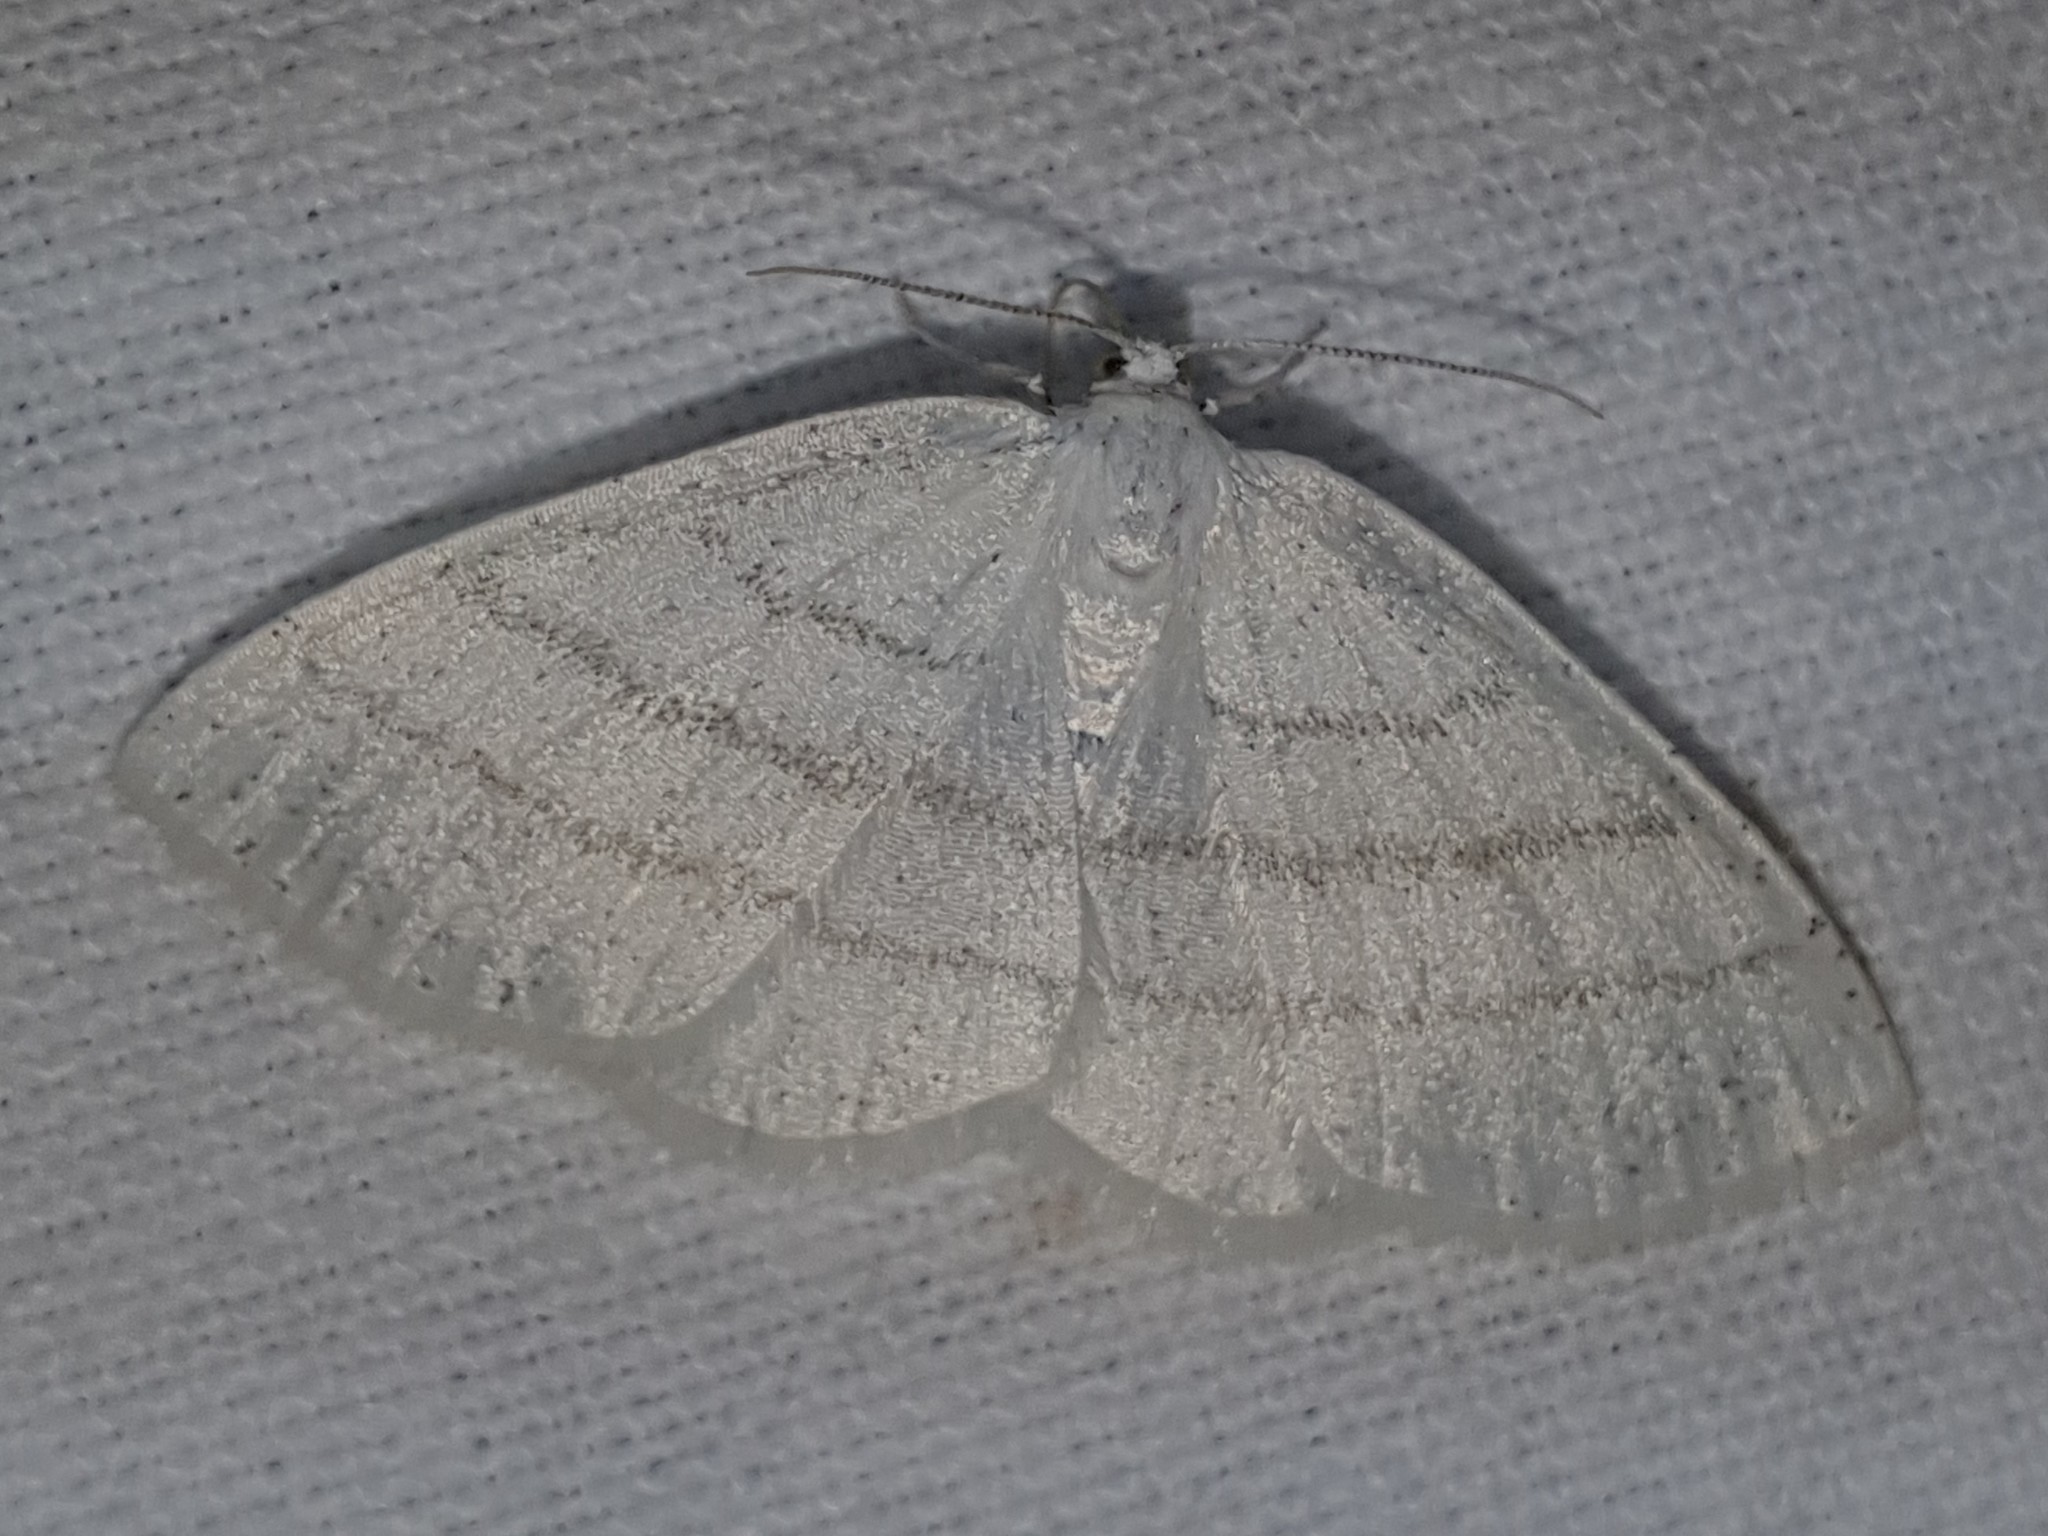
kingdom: Animalia
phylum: Arthropoda
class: Insecta
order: Lepidoptera
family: Geometridae
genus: Cabera
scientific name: Cabera pusaria
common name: Common white wave
